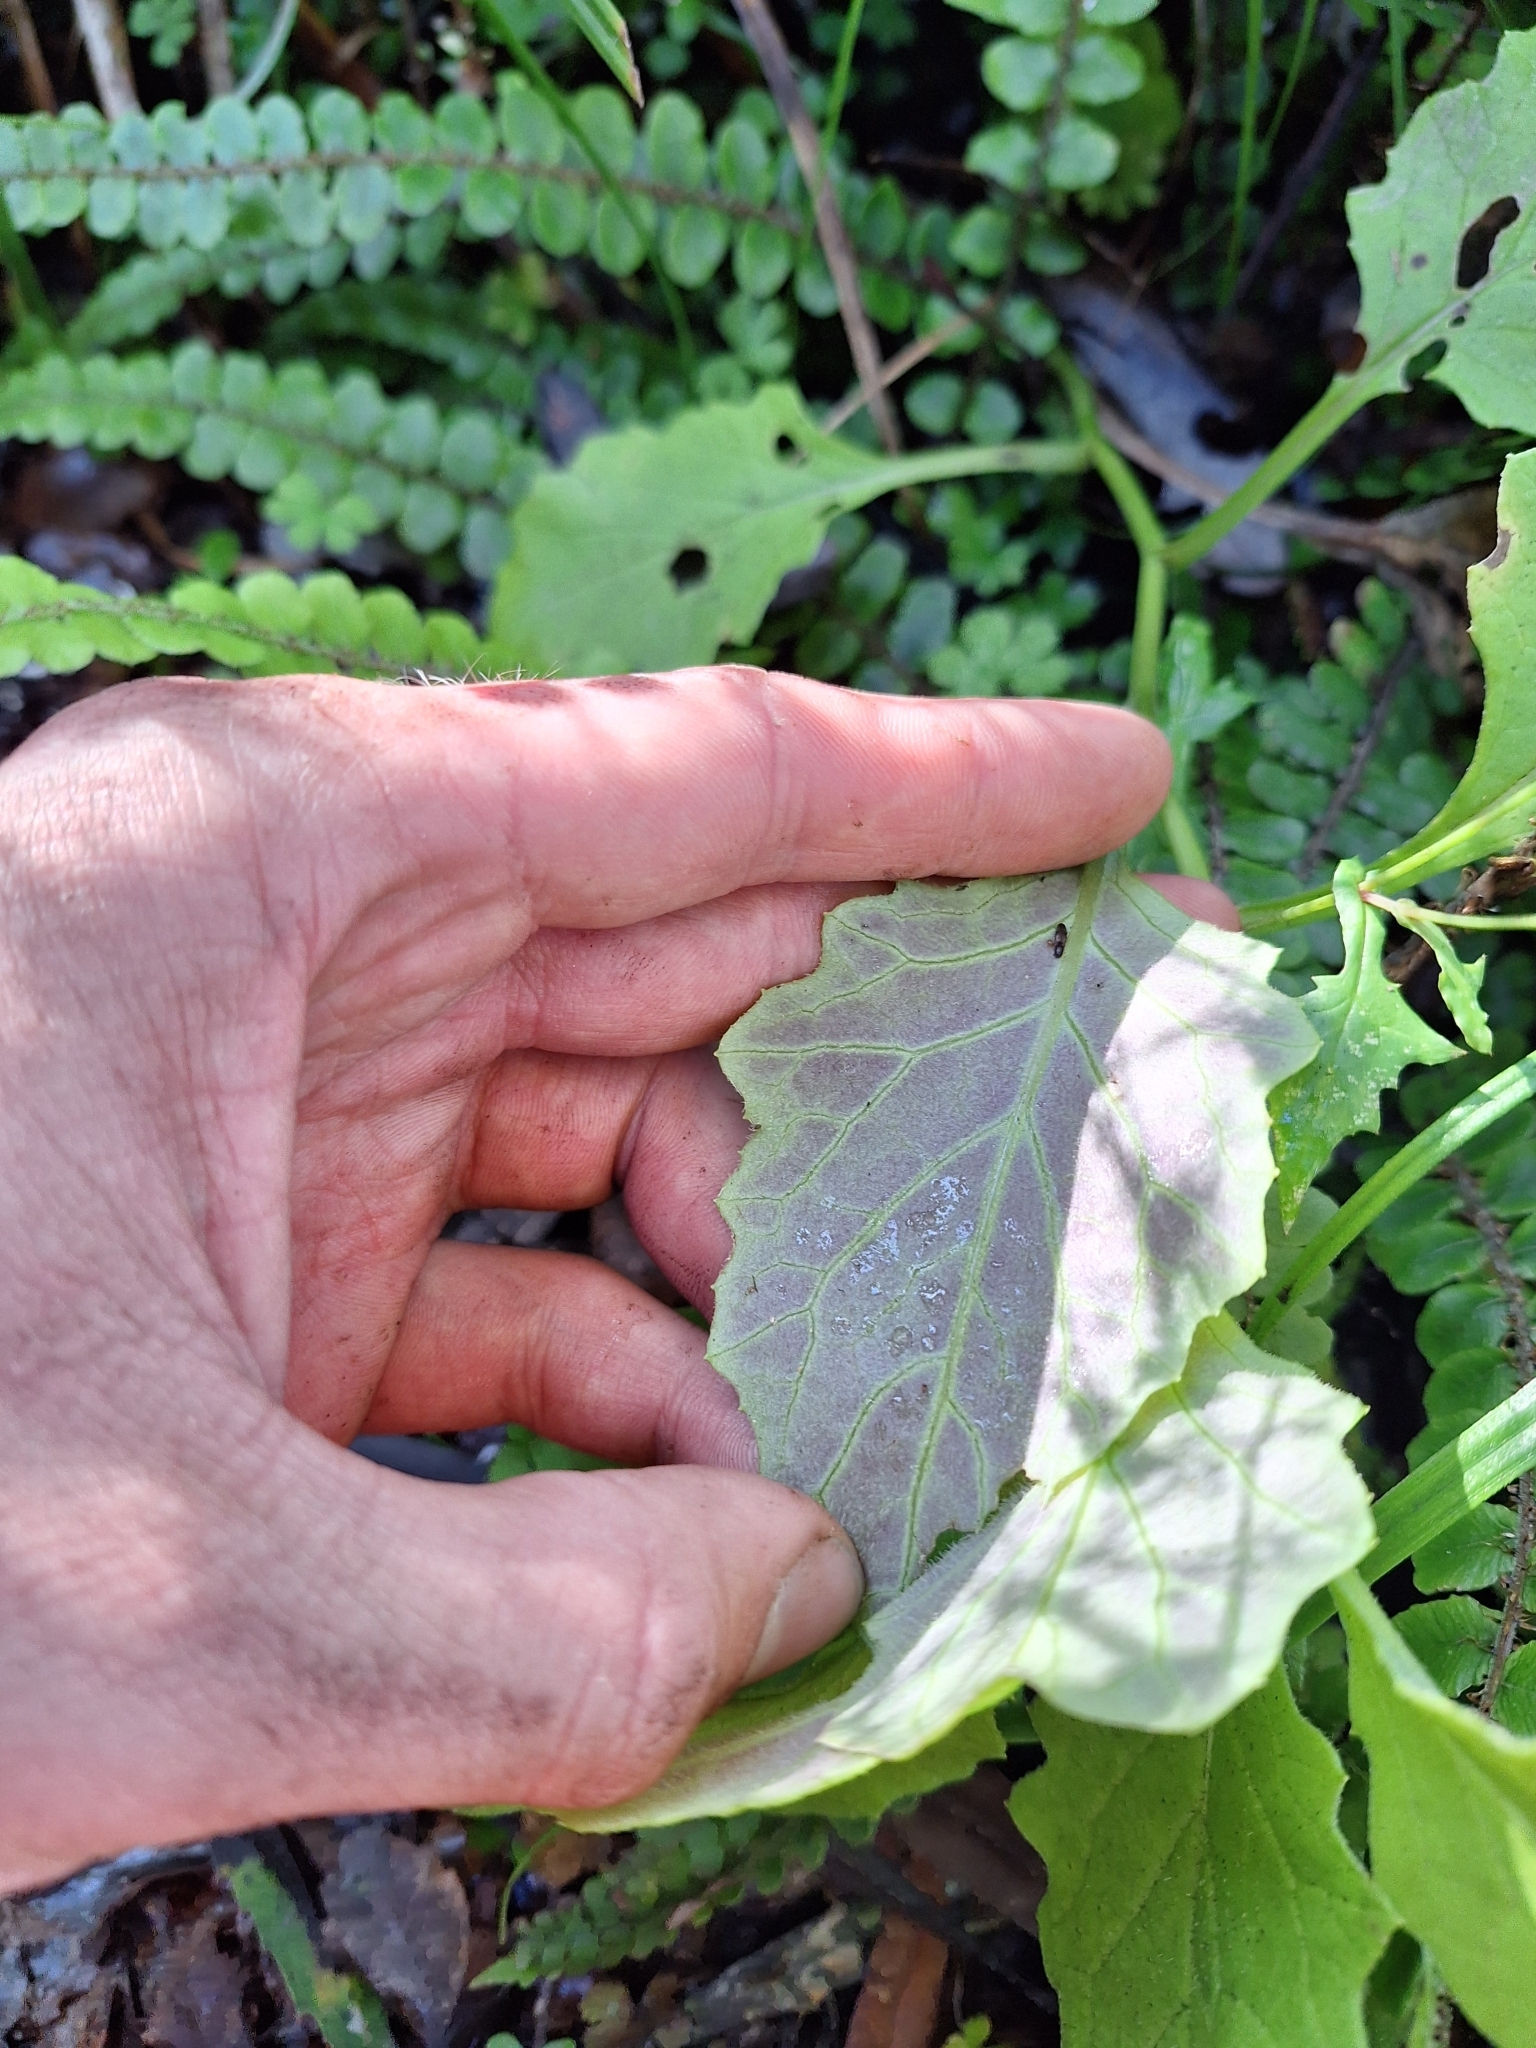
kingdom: Plantae
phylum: Tracheophyta
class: Magnoliopsida
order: Asterales
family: Asteraceae
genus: Senecio
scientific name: Senecio rufiglandulosus
